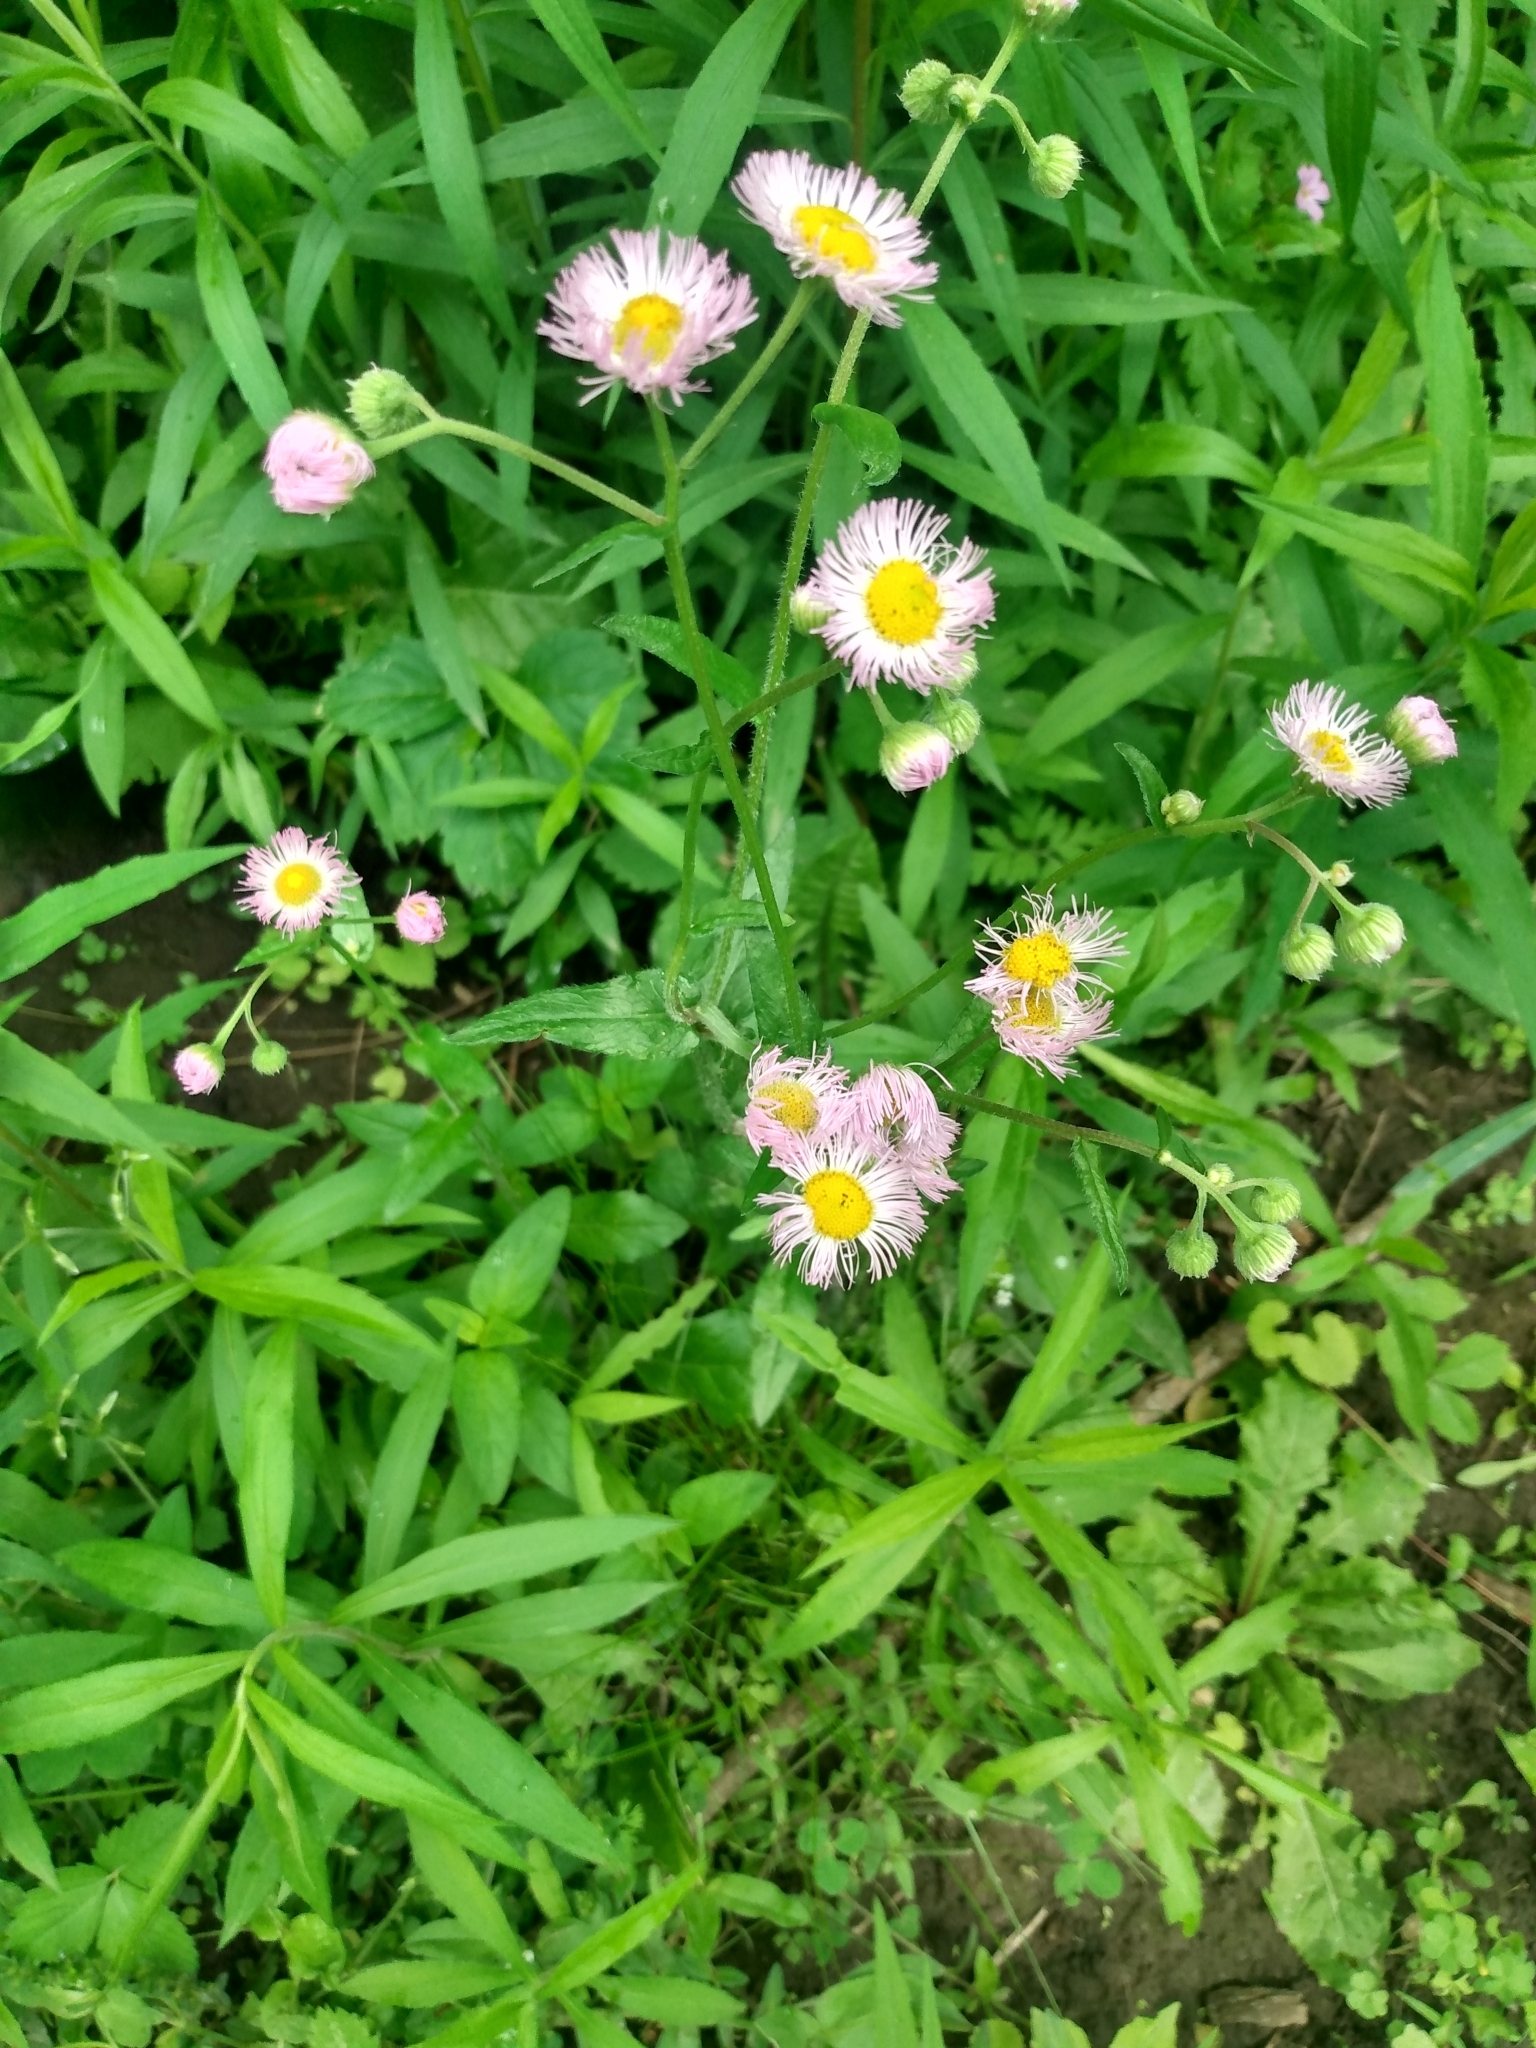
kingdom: Plantae
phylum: Tracheophyta
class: Magnoliopsida
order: Asterales
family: Asteraceae
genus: Erigeron
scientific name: Erigeron philadelphicus
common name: Robin's-plantain
